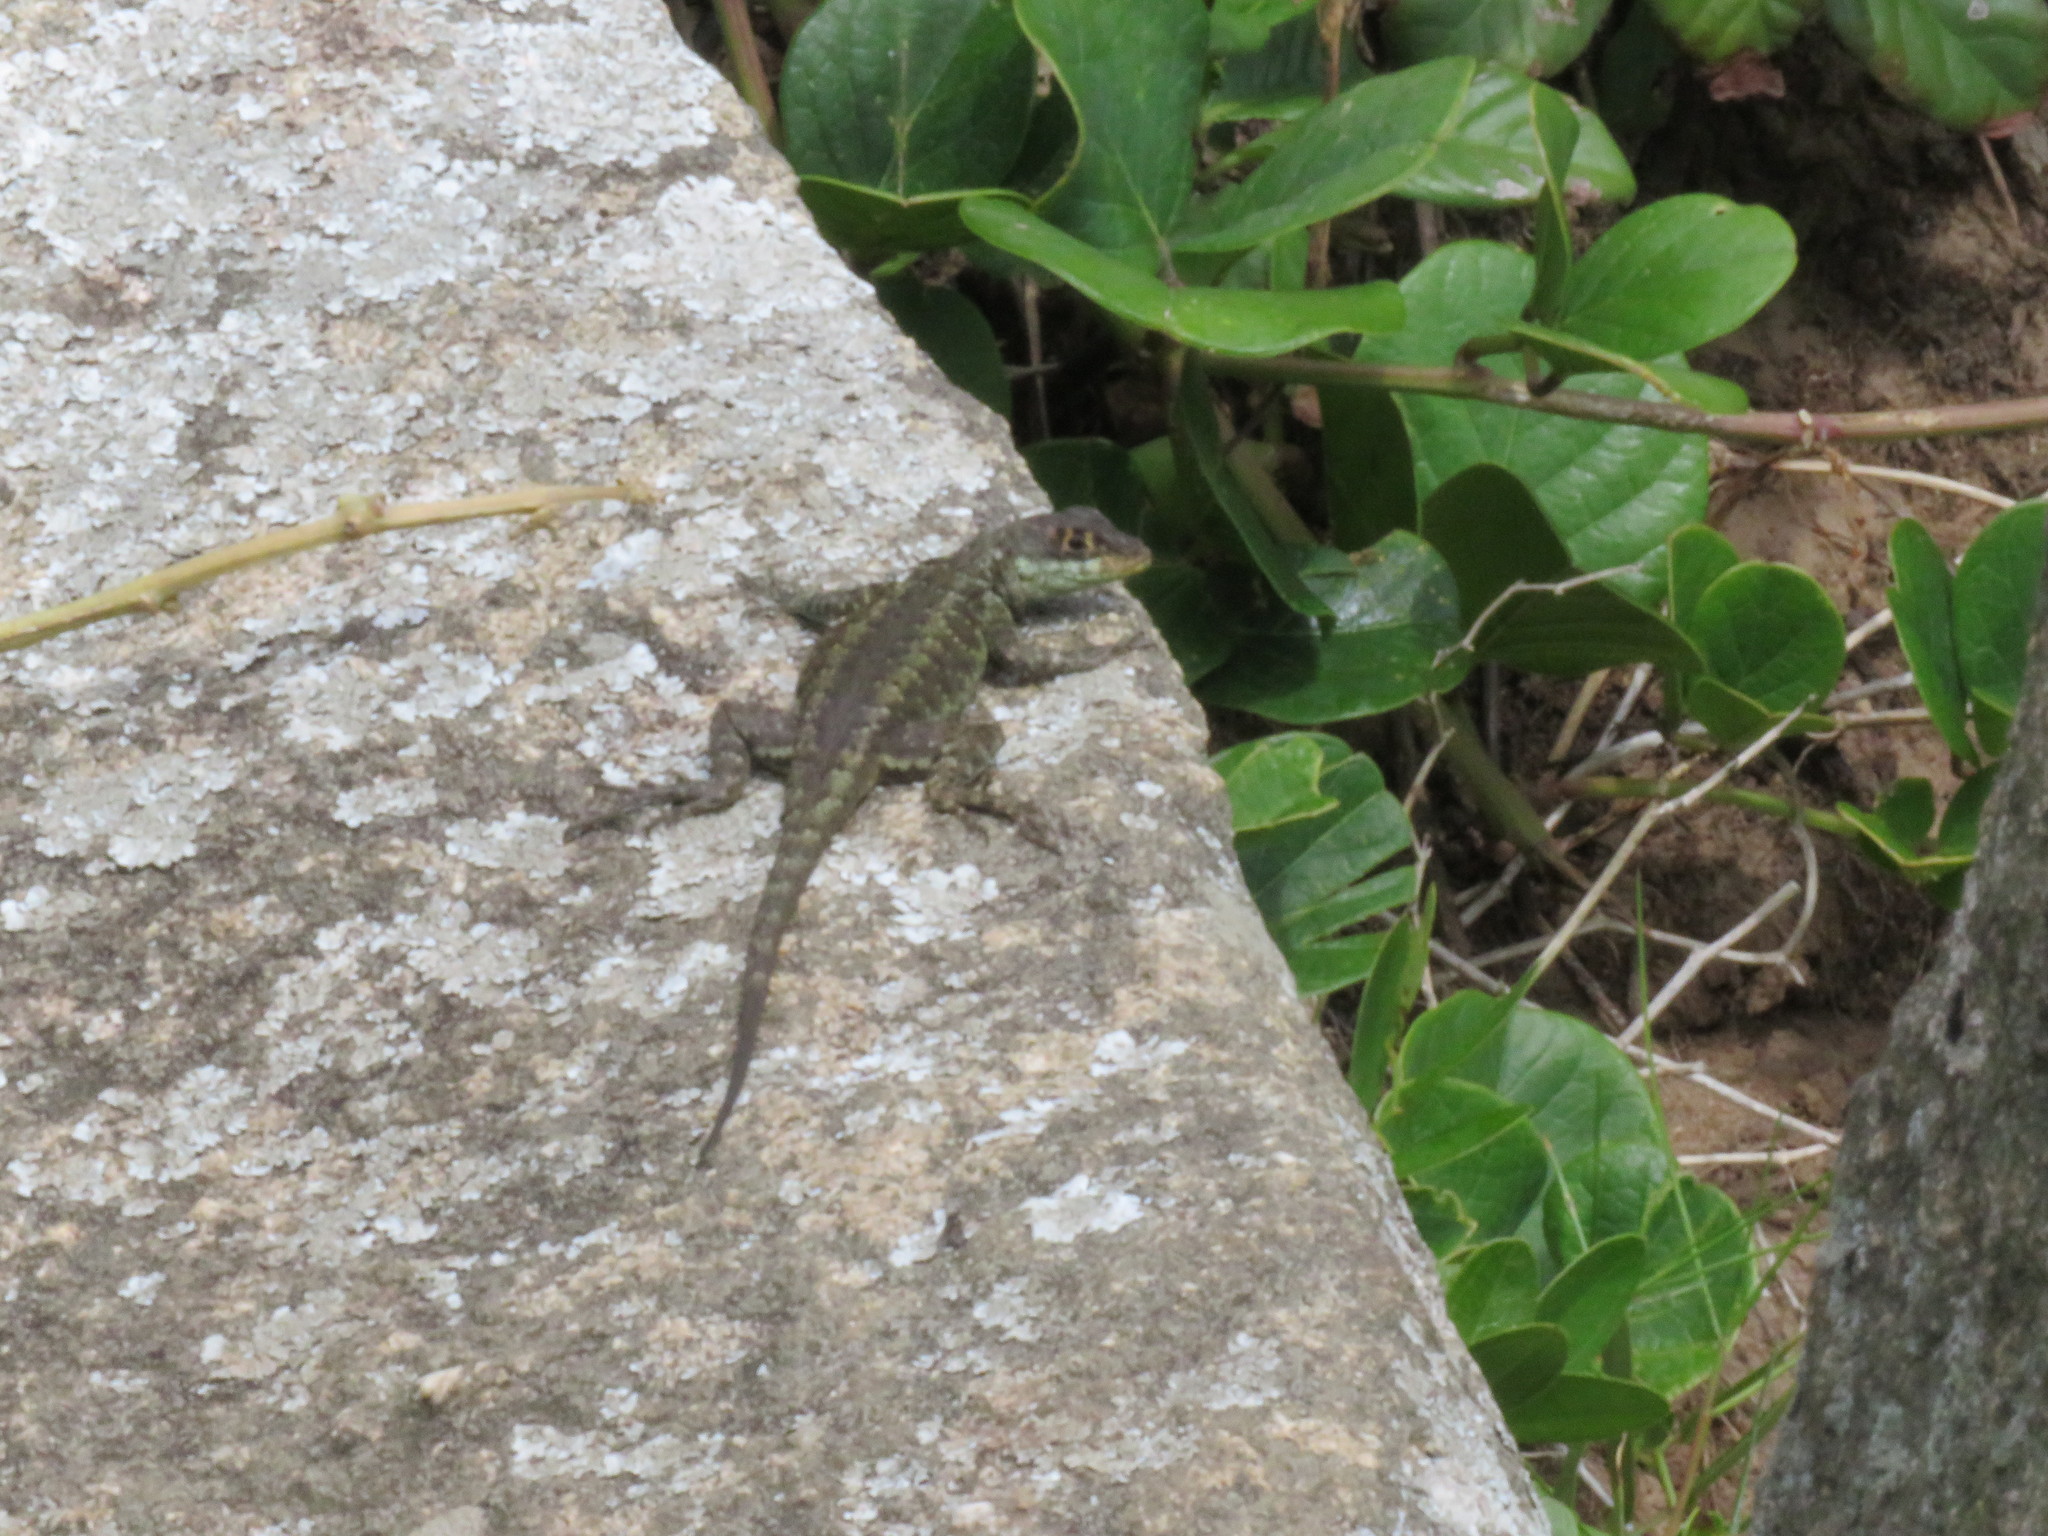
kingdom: Animalia
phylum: Chordata
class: Squamata
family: Tropiduridae
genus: Tropidurus
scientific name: Tropidurus imbituba
